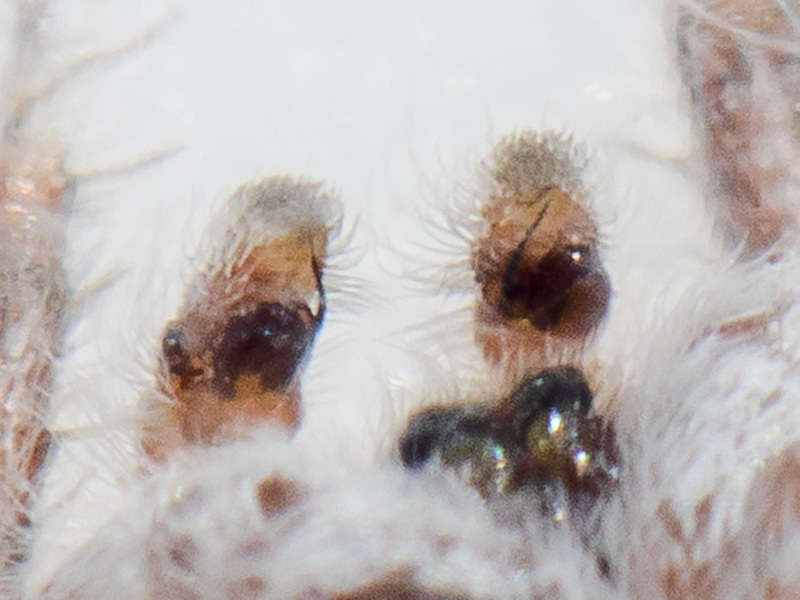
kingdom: Animalia
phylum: Arthropoda
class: Arachnida
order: Araneae
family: Salticidae
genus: Pseudomogrus
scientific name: Pseudomogrus guseinovi
